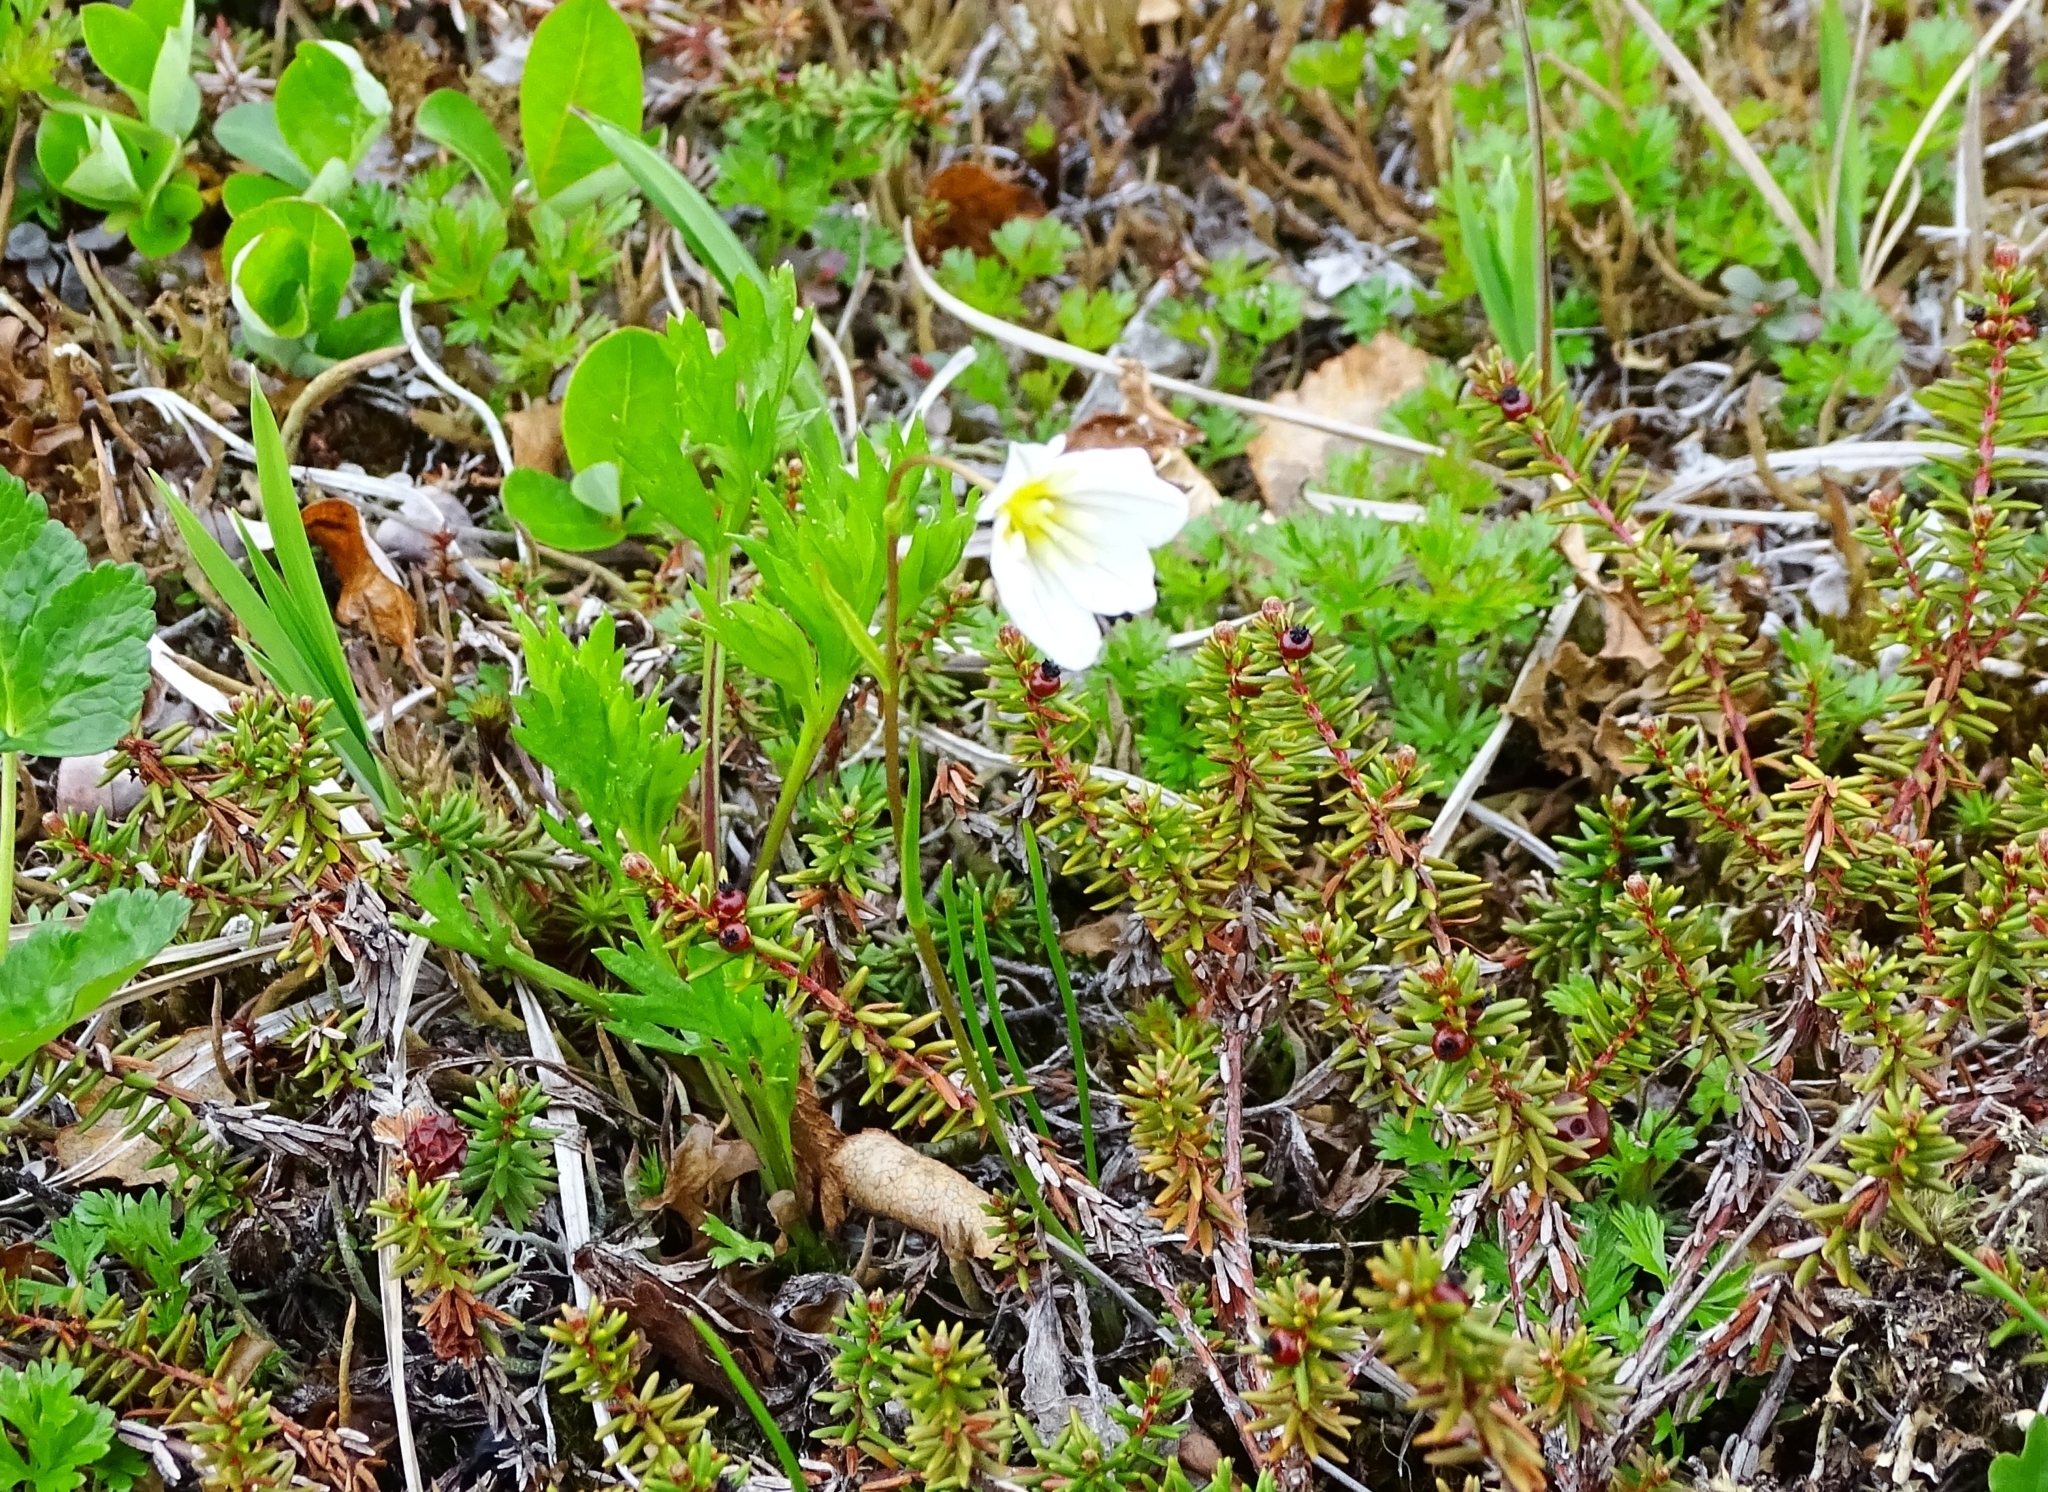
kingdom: Plantae
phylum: Tracheophyta
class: Liliopsida
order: Liliales
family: Liliaceae
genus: Gagea
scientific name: Gagea serotina
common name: Snowdon lily
